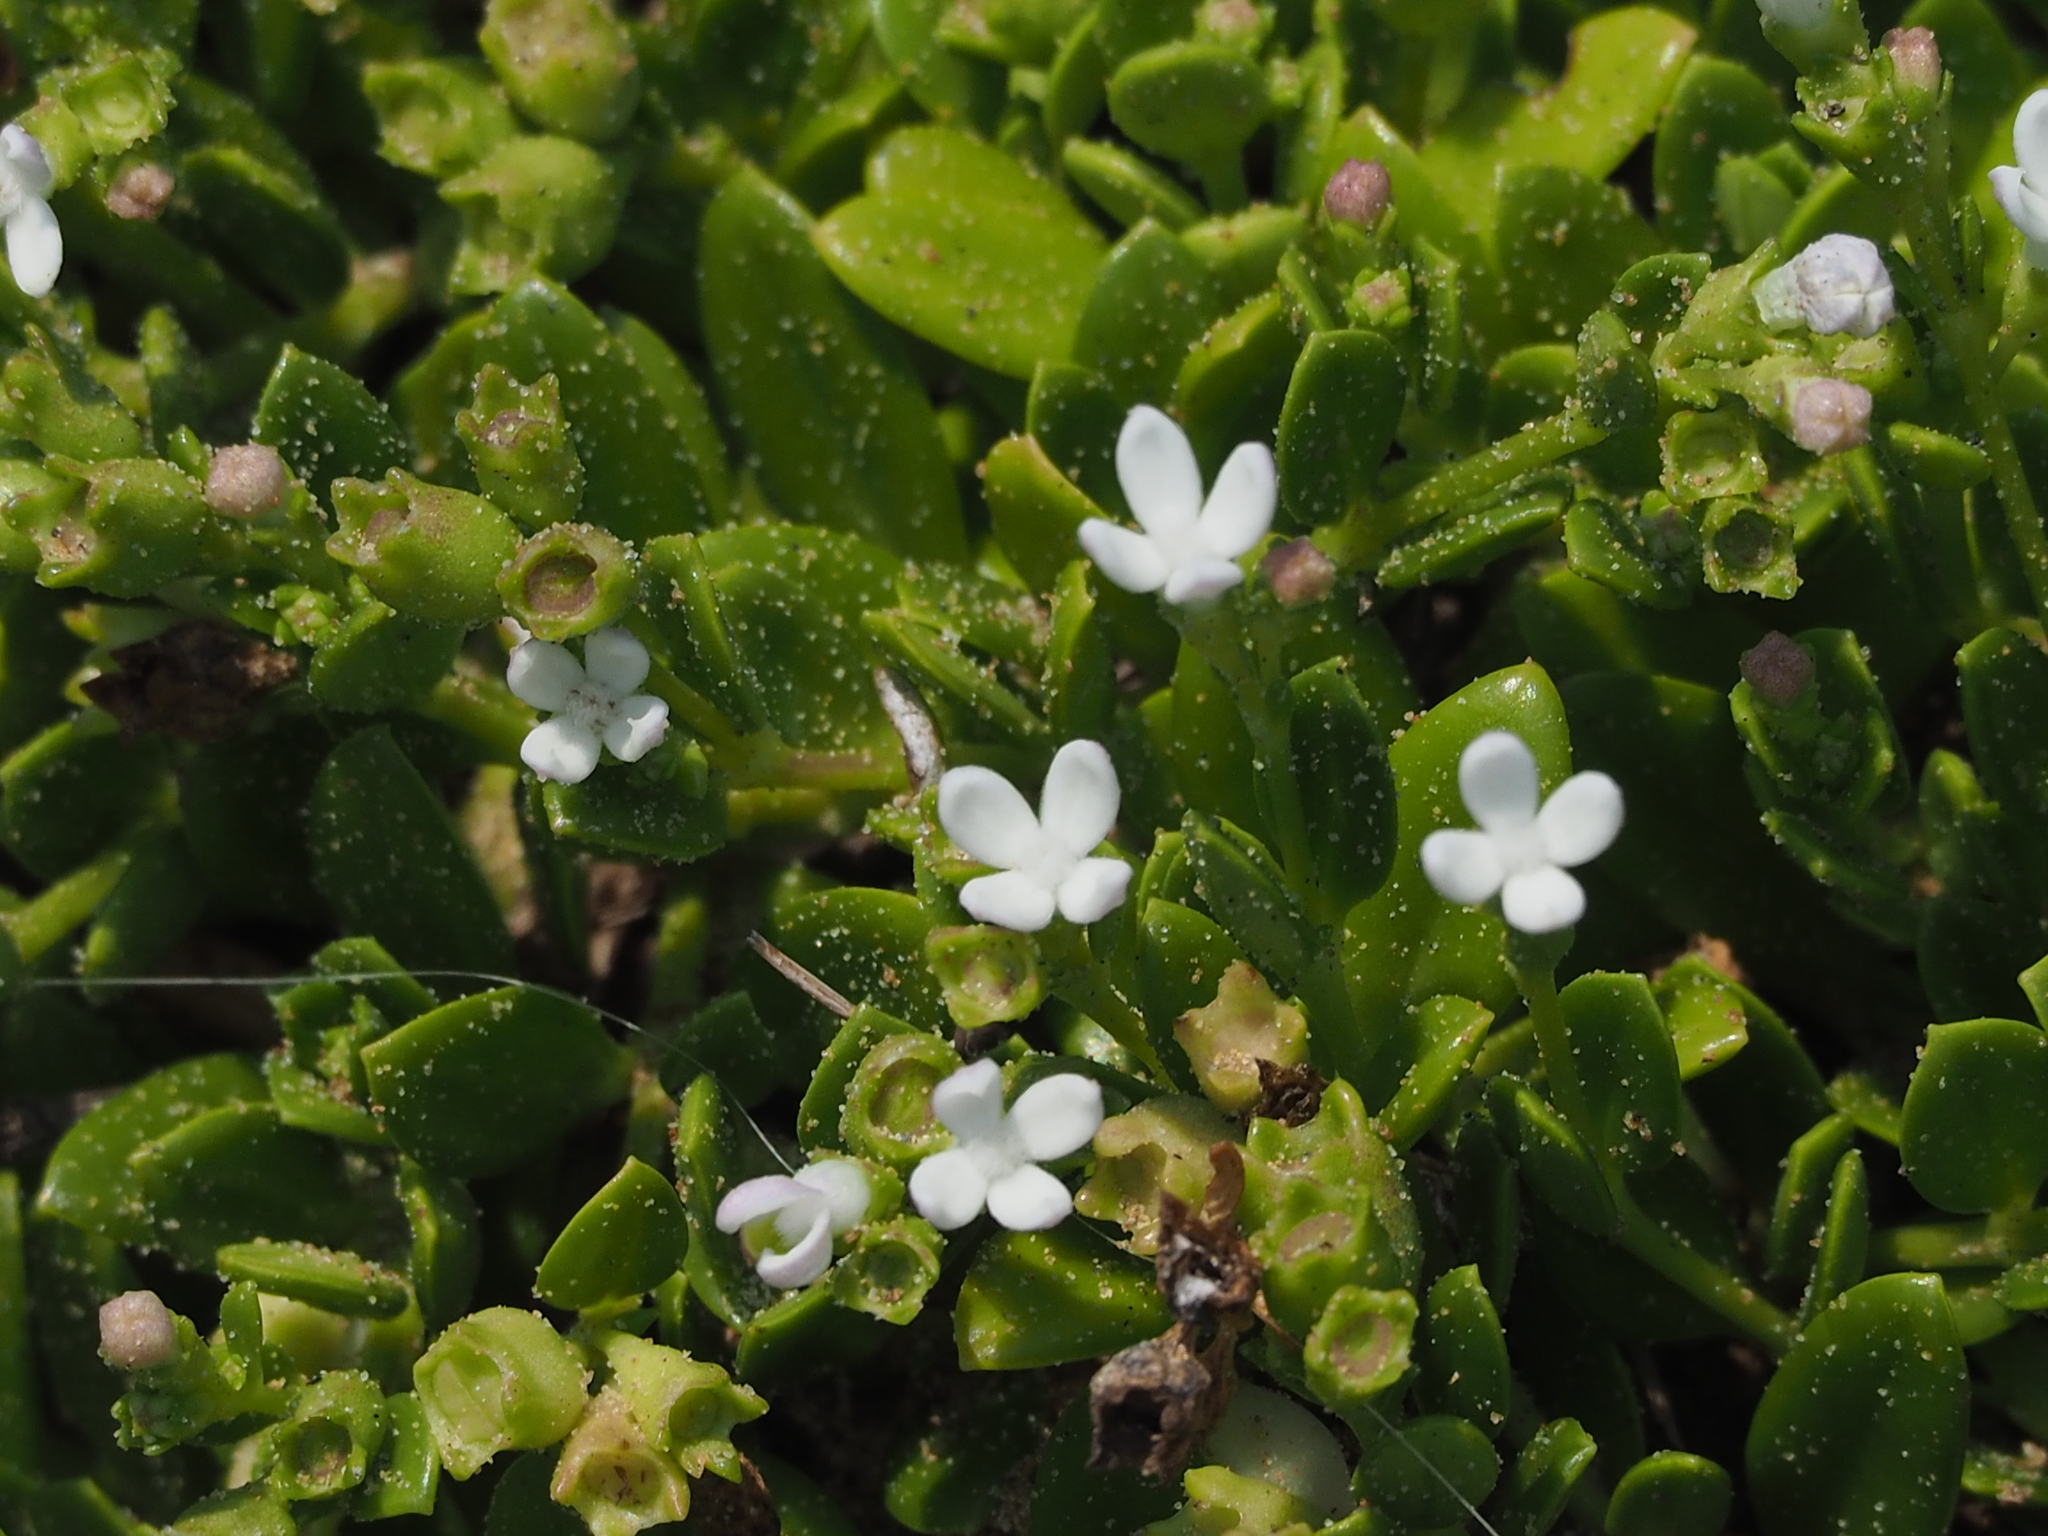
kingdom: Plantae
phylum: Tracheophyta
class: Magnoliopsida
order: Gentianales
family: Rubiaceae
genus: Leptopetalum
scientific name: Leptopetalum strigulosum
